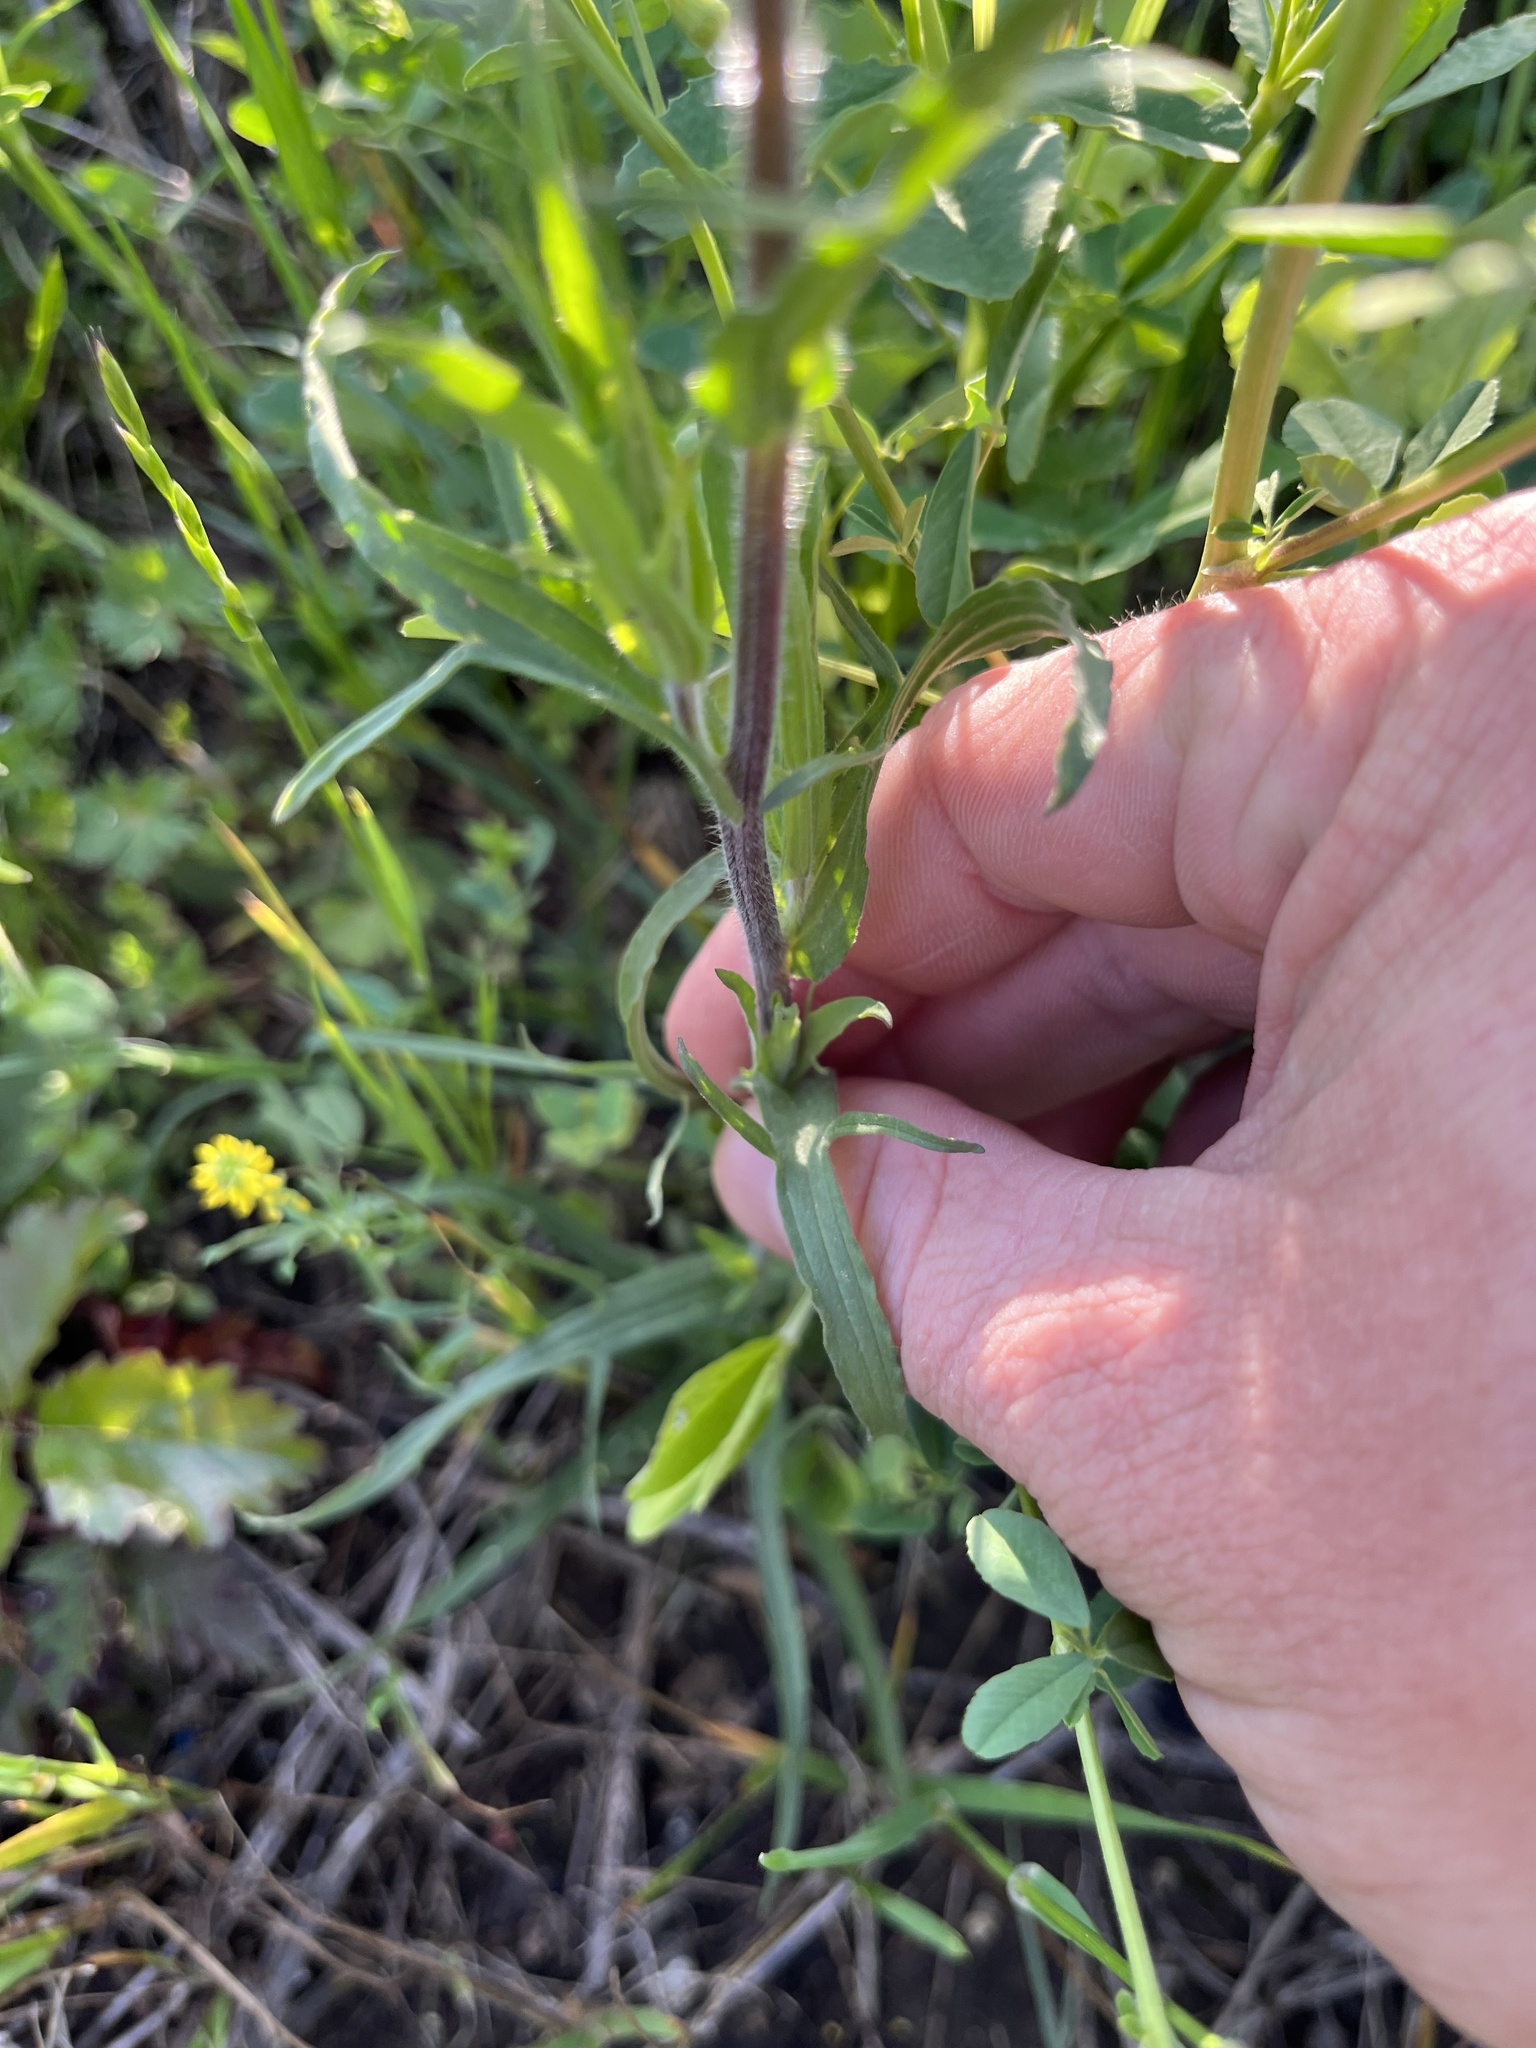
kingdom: Plantae
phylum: Tracheophyta
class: Magnoliopsida
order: Lamiales
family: Orobanchaceae
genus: Castilleja
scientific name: Castilleja indivisa
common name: Texas paintbrush
